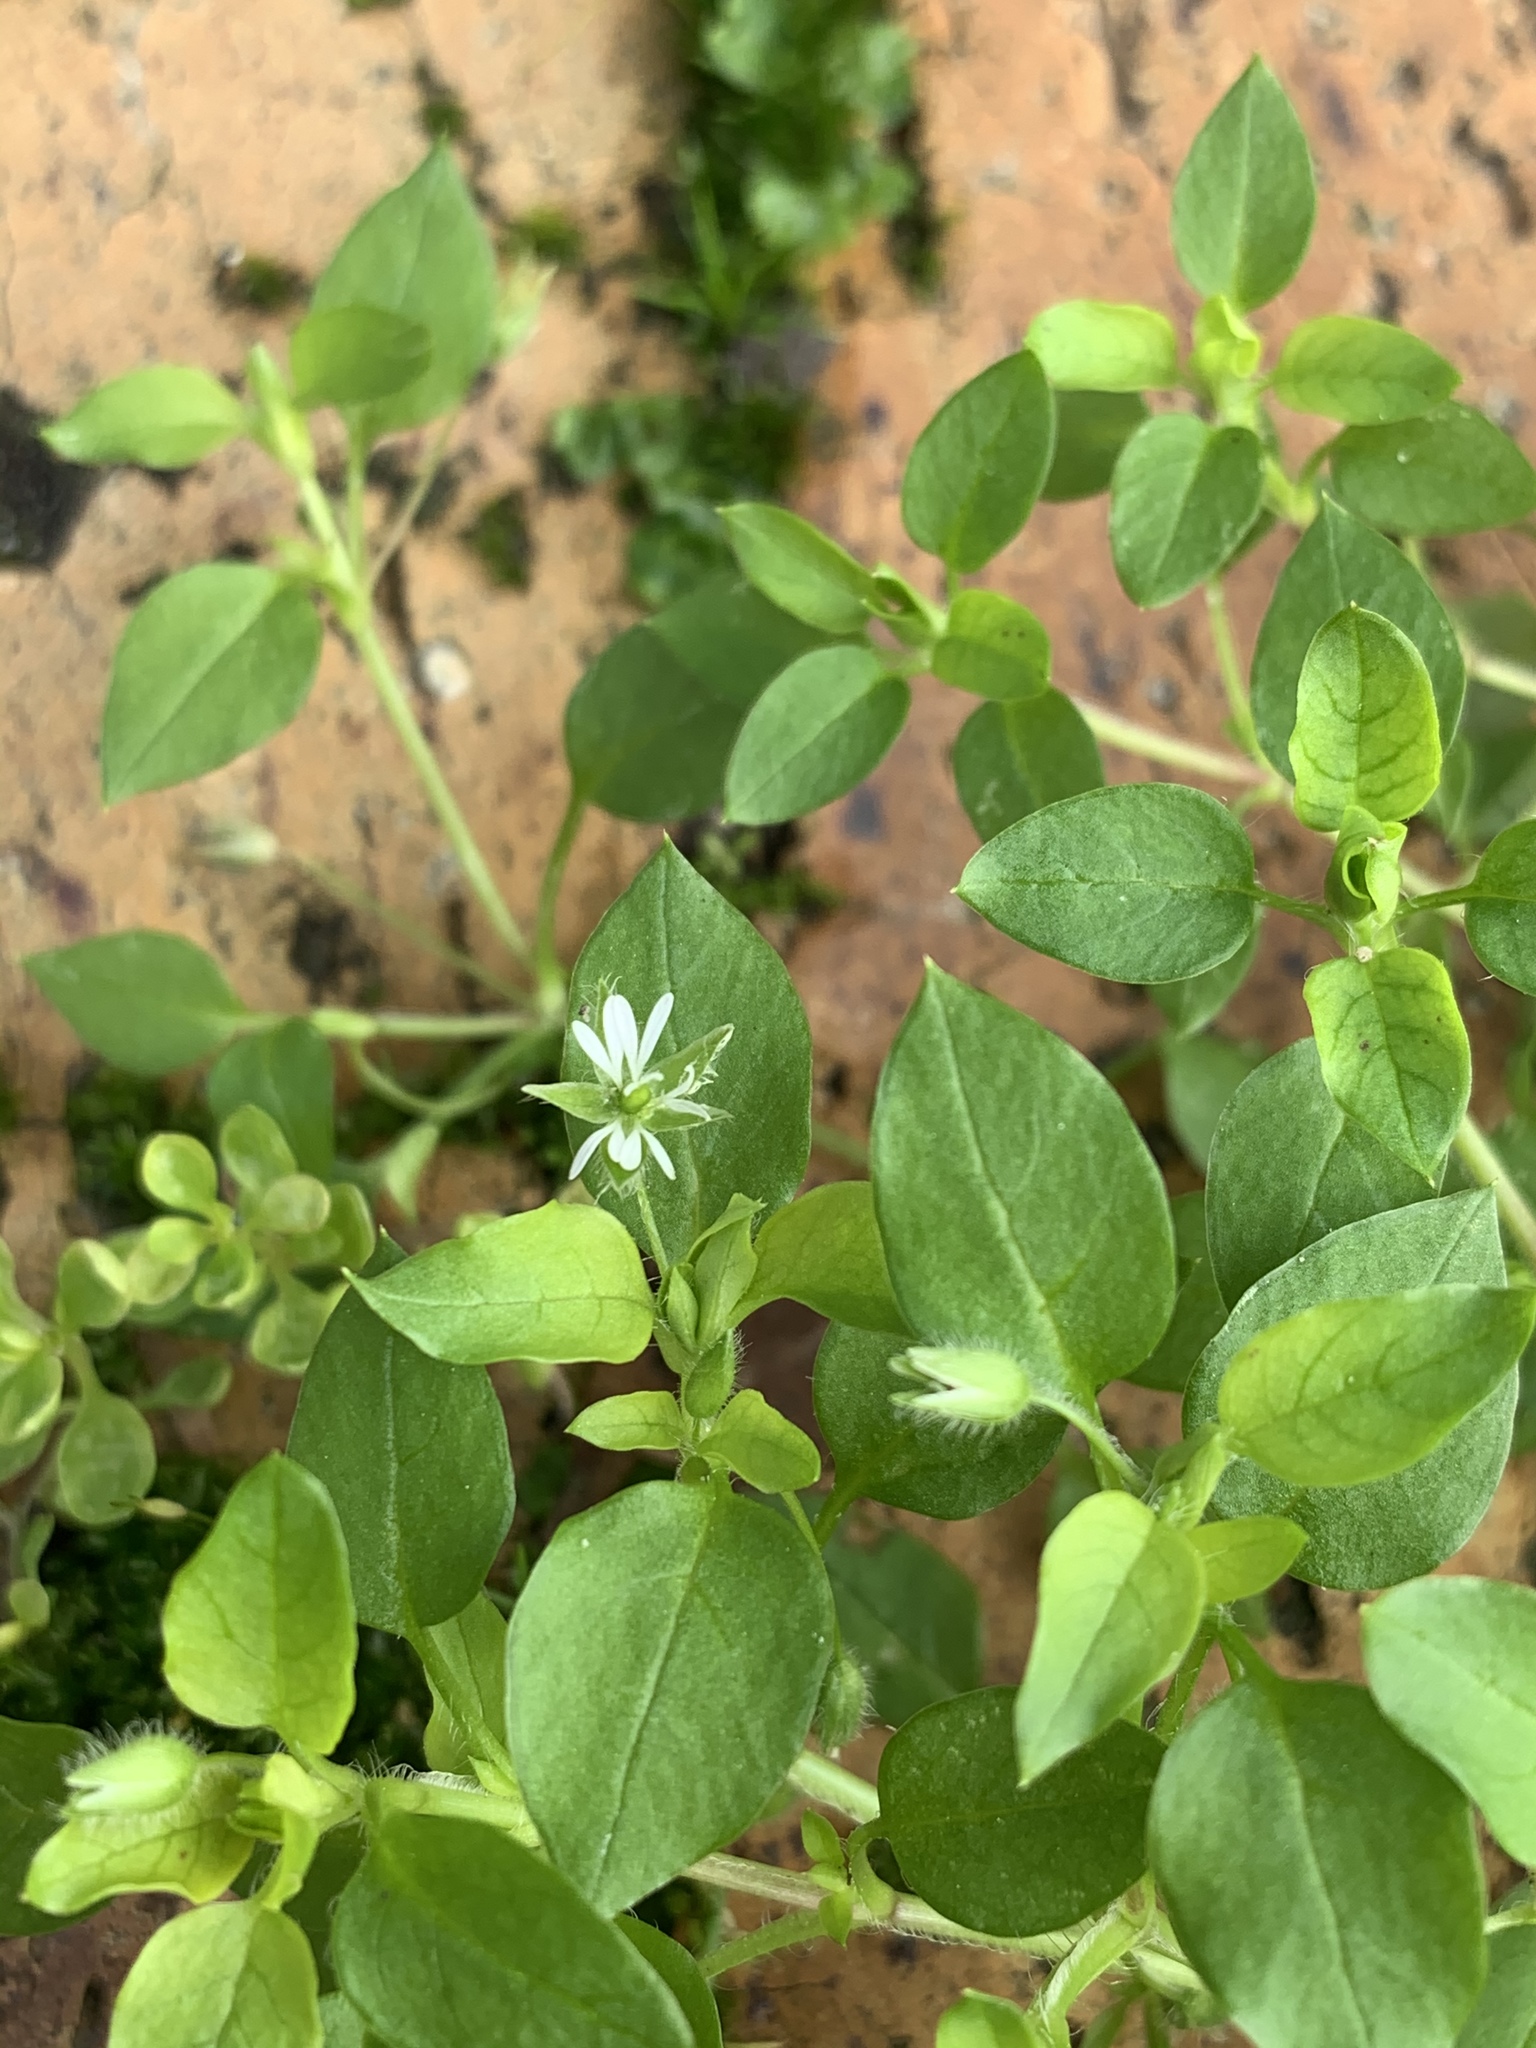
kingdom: Plantae
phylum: Tracheophyta
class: Magnoliopsida
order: Caryophyllales
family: Caryophyllaceae
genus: Stellaria
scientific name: Stellaria media
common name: Common chickweed
